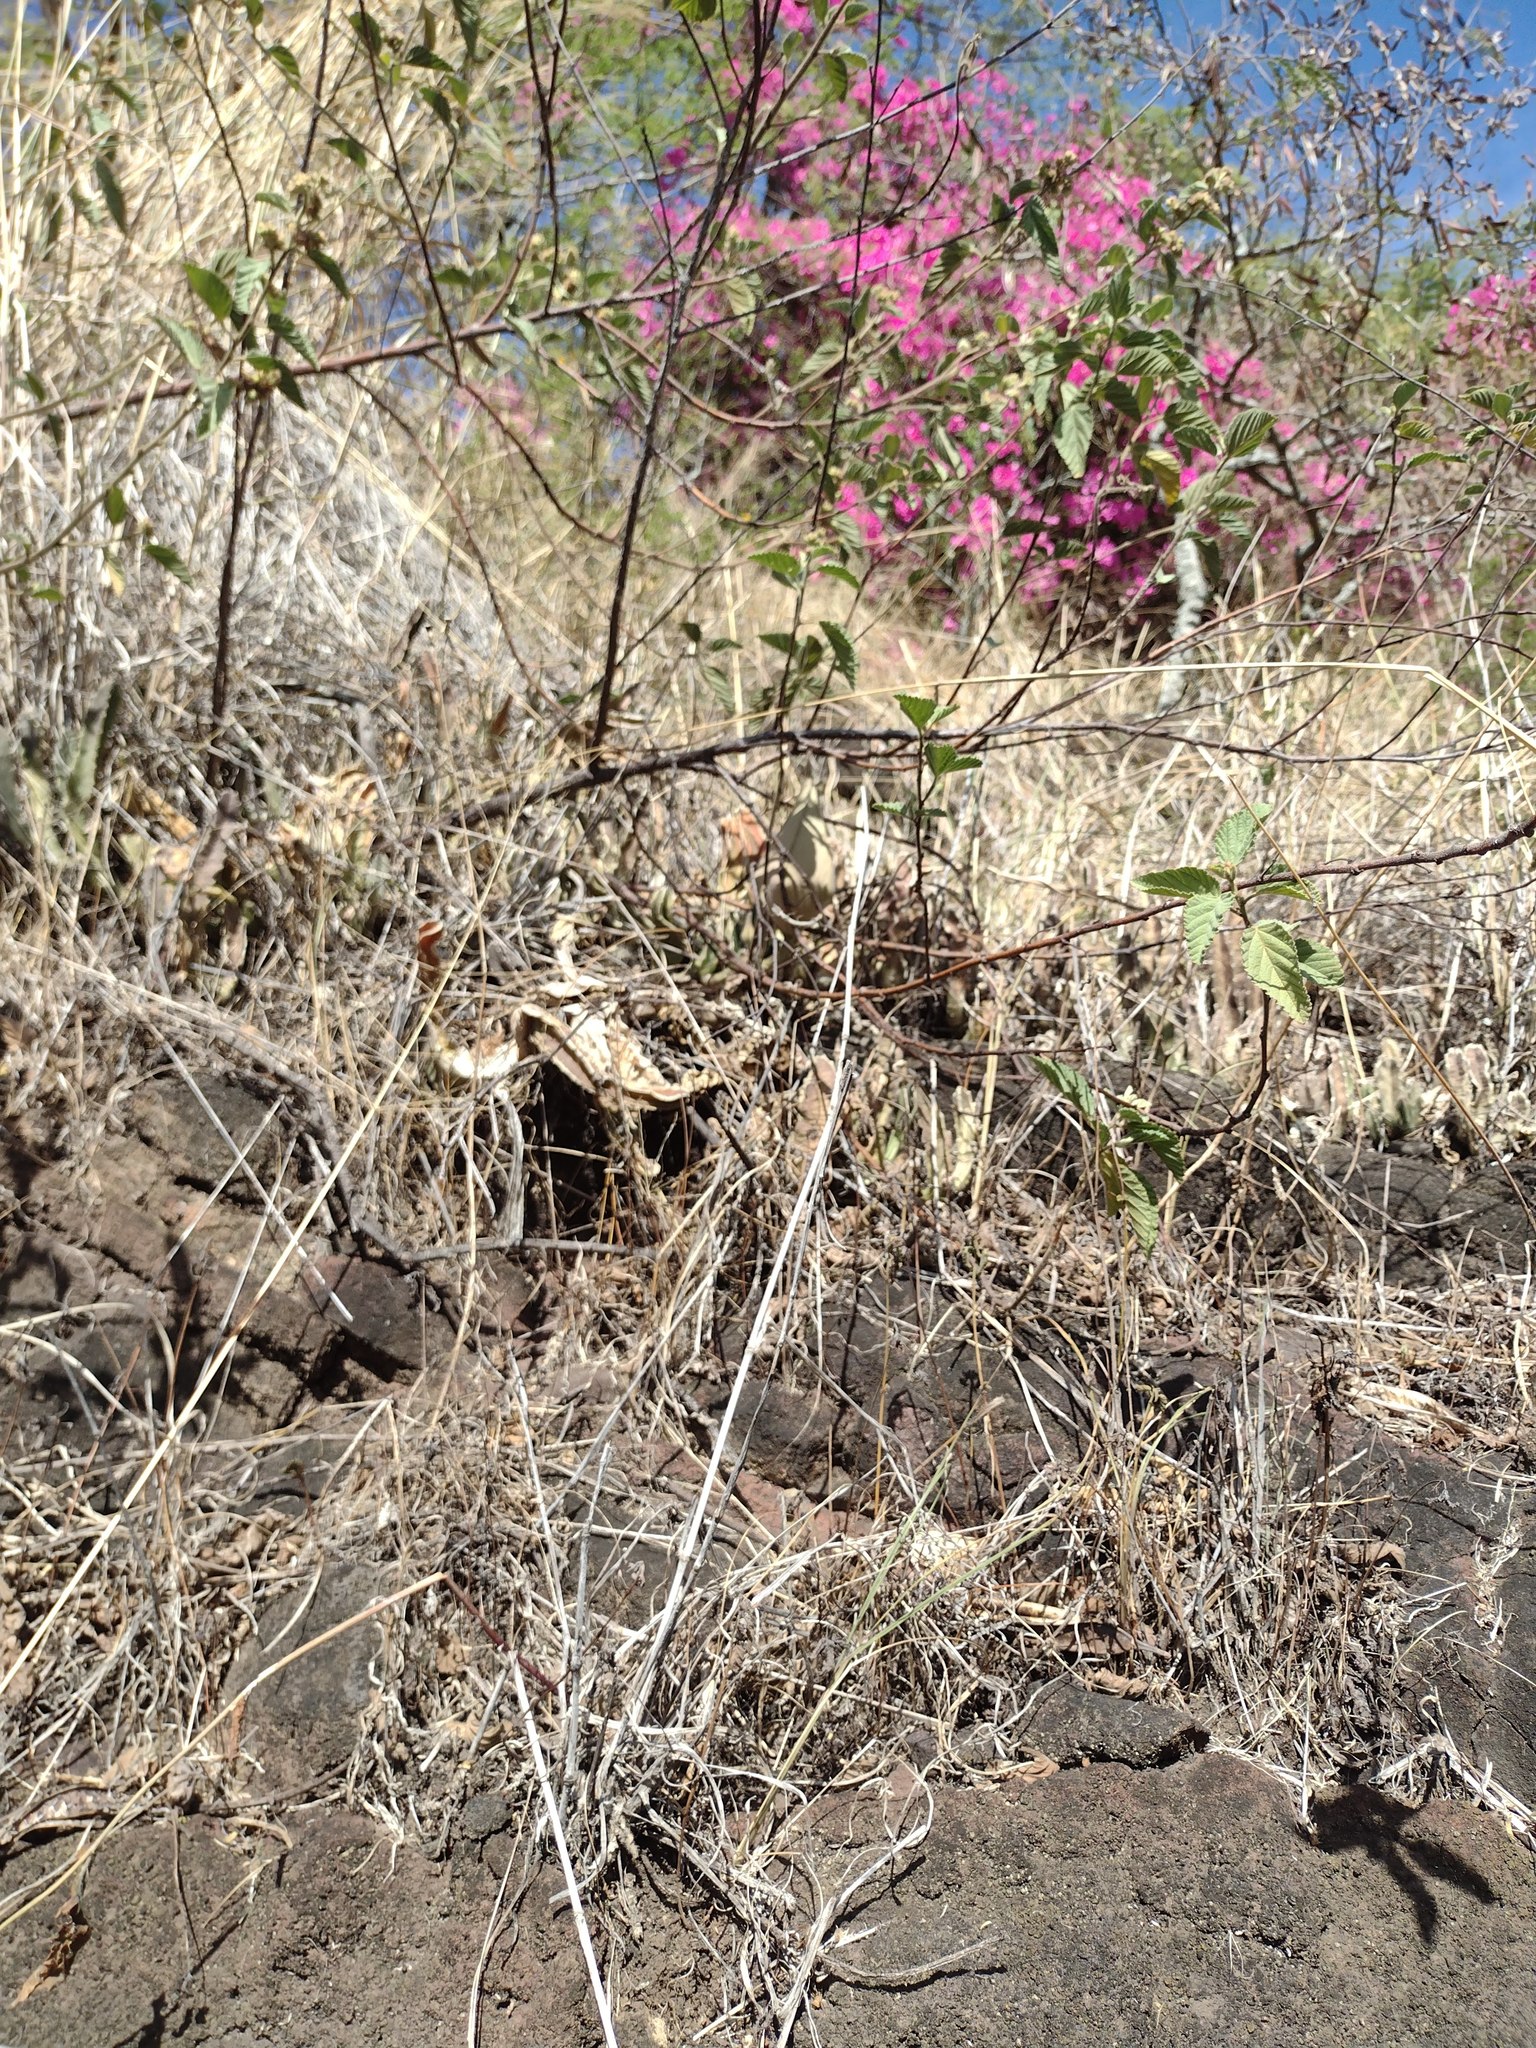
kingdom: Plantae
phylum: Tracheophyta
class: Magnoliopsida
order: Malvales
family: Malvaceae
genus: Waltheria
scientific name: Waltheria indica
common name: Leather-coat
